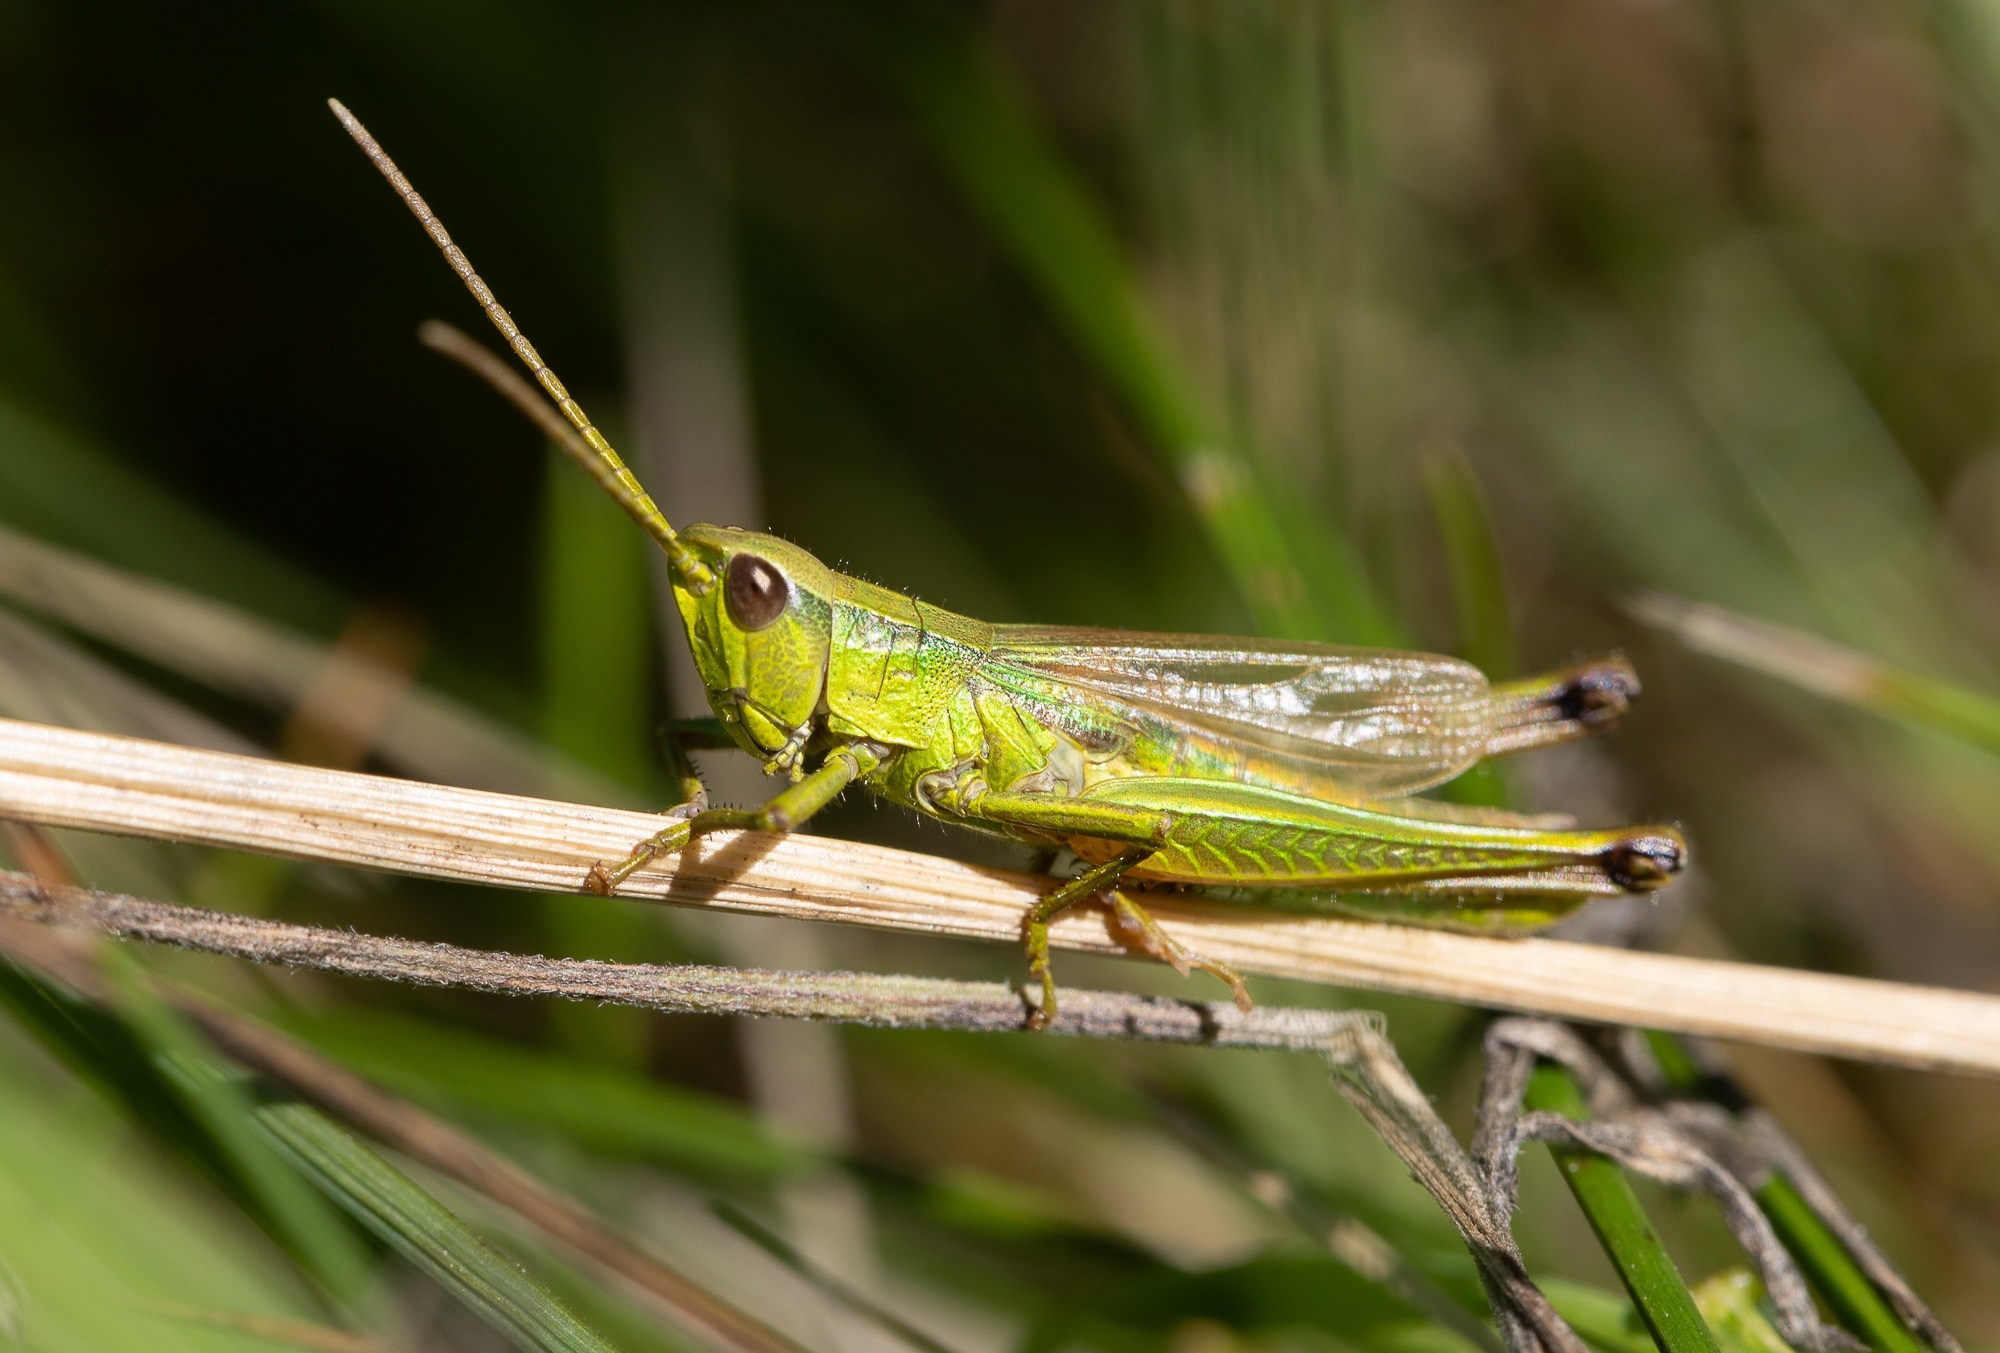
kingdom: Animalia
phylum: Arthropoda
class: Insecta
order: Orthoptera
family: Acrididae
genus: Chrysochraon
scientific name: Chrysochraon dispar
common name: Large gold grasshopper
